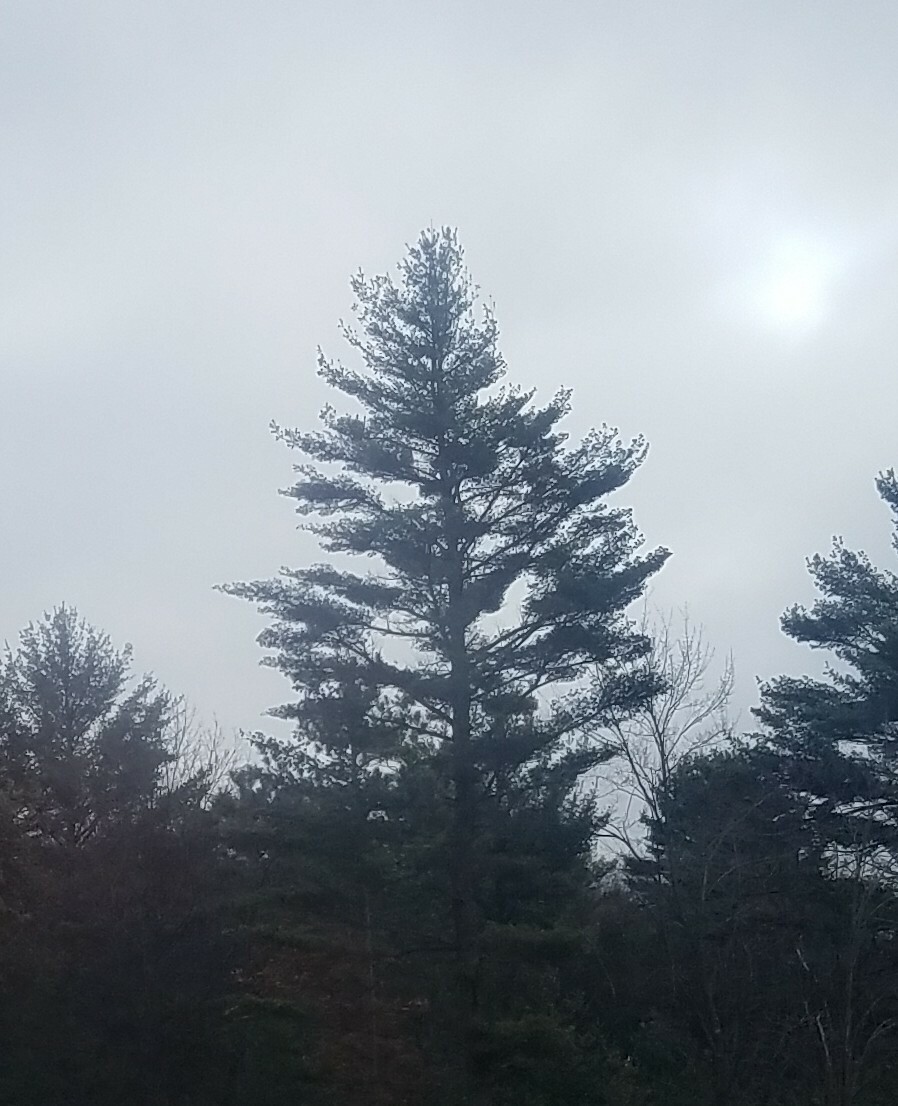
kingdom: Plantae
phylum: Tracheophyta
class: Pinopsida
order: Pinales
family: Pinaceae
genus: Pinus
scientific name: Pinus strobus
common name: Weymouth pine
